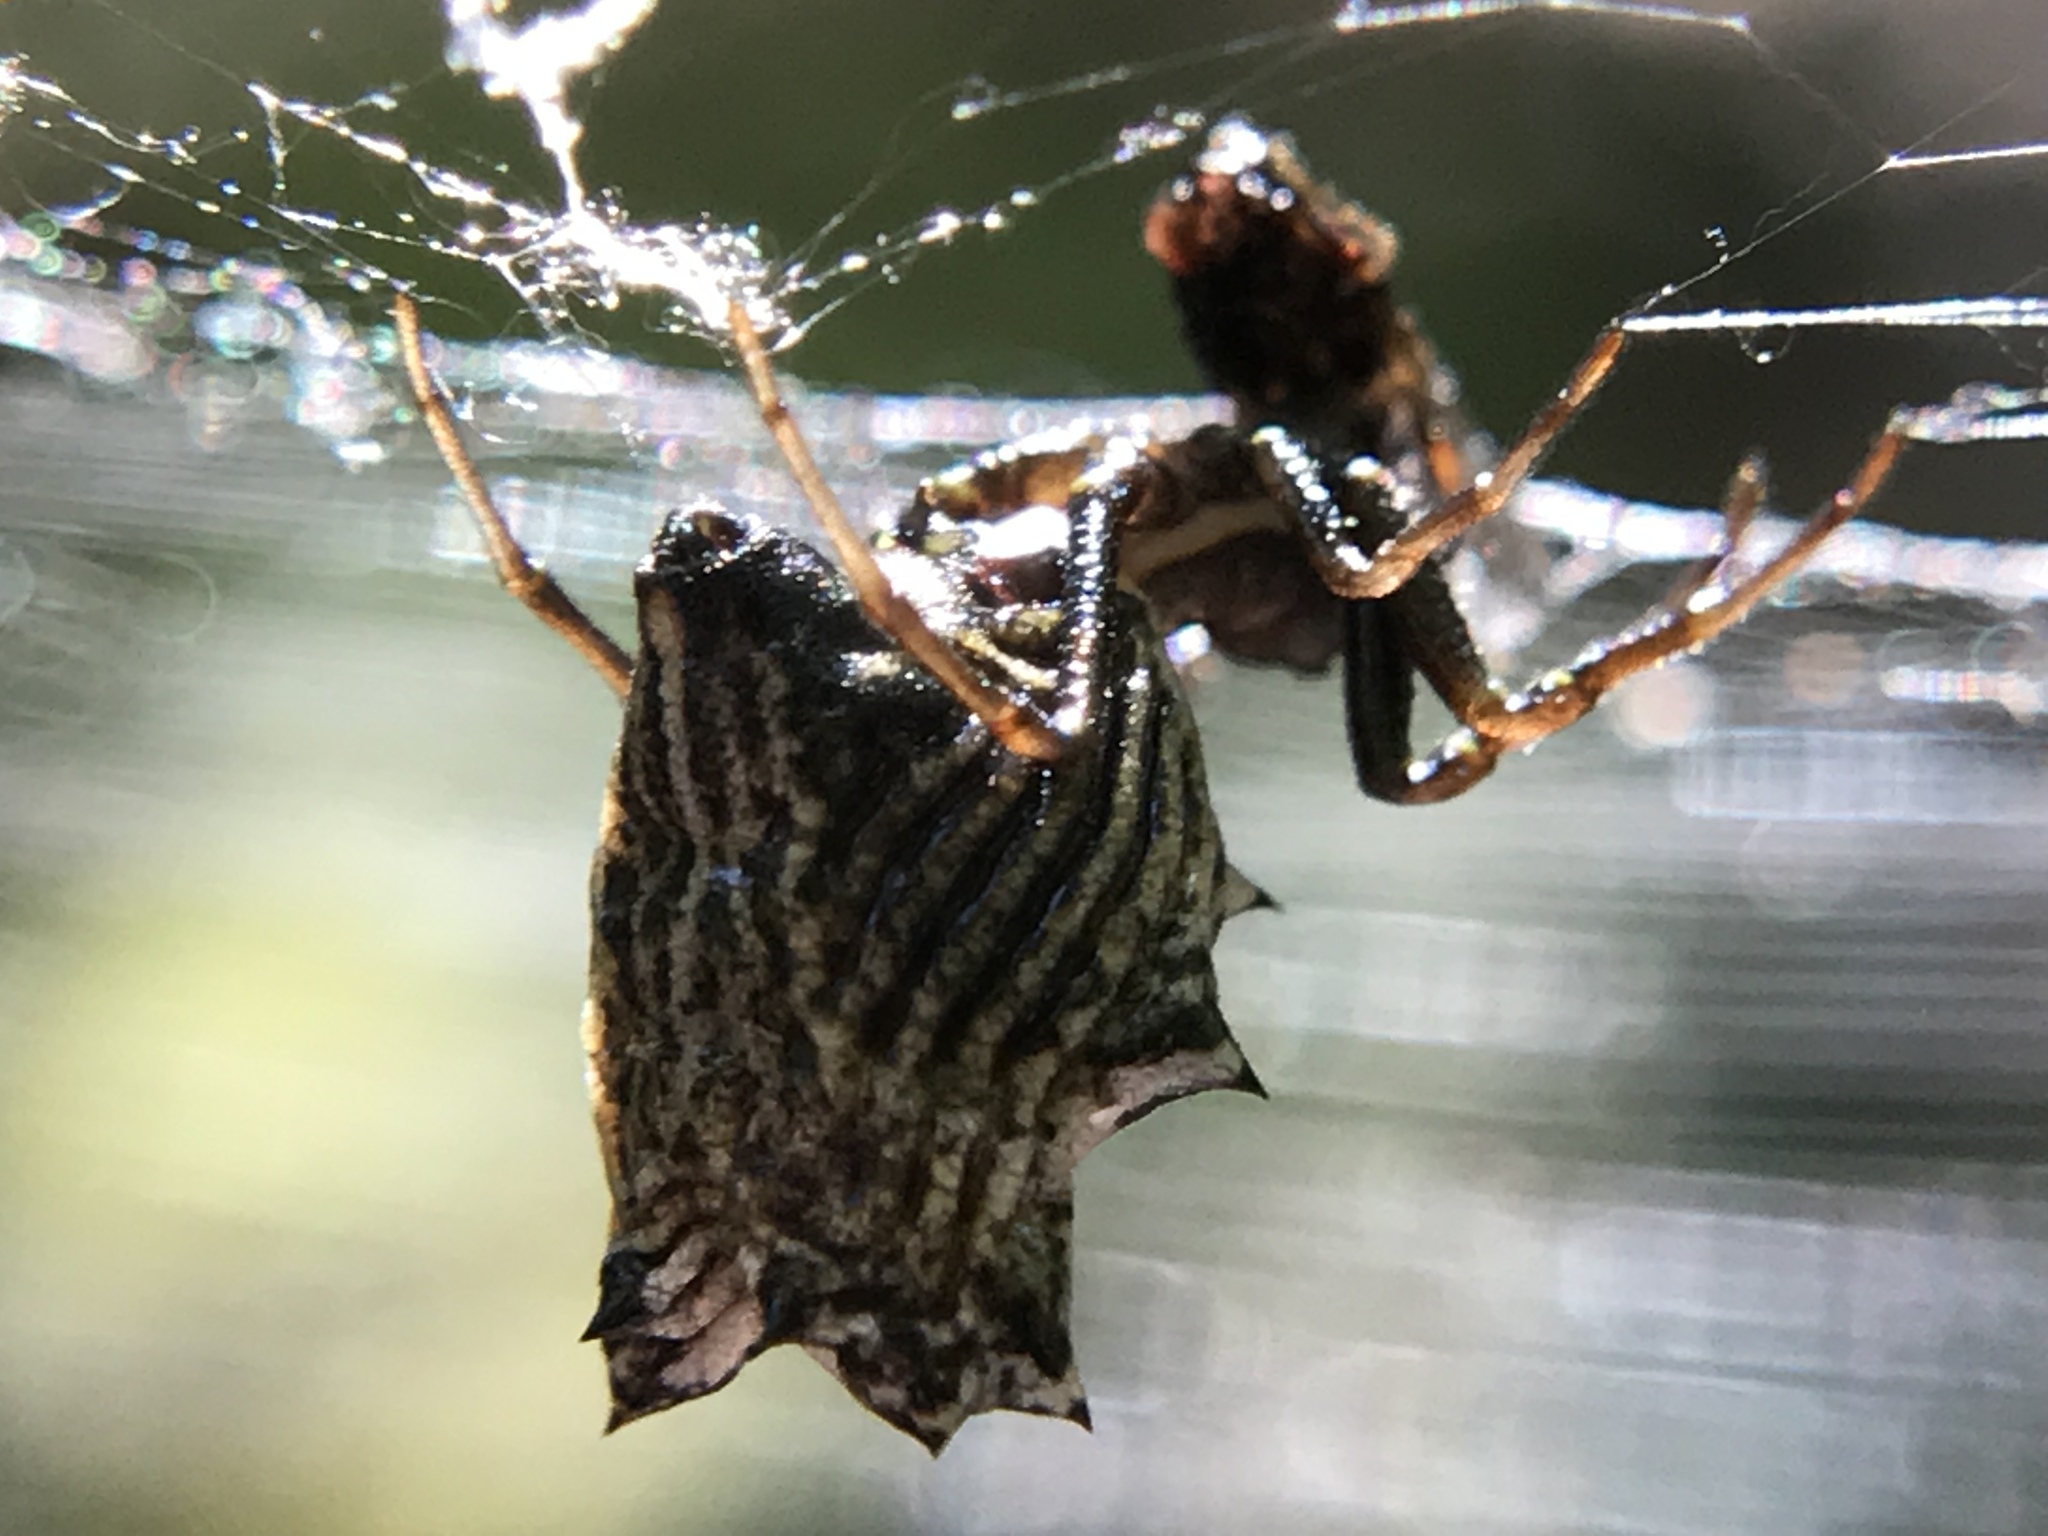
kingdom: Animalia
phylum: Arthropoda
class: Arachnida
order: Araneae
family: Araneidae
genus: Micrathena
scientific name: Micrathena gracilis
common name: Orb weavers
